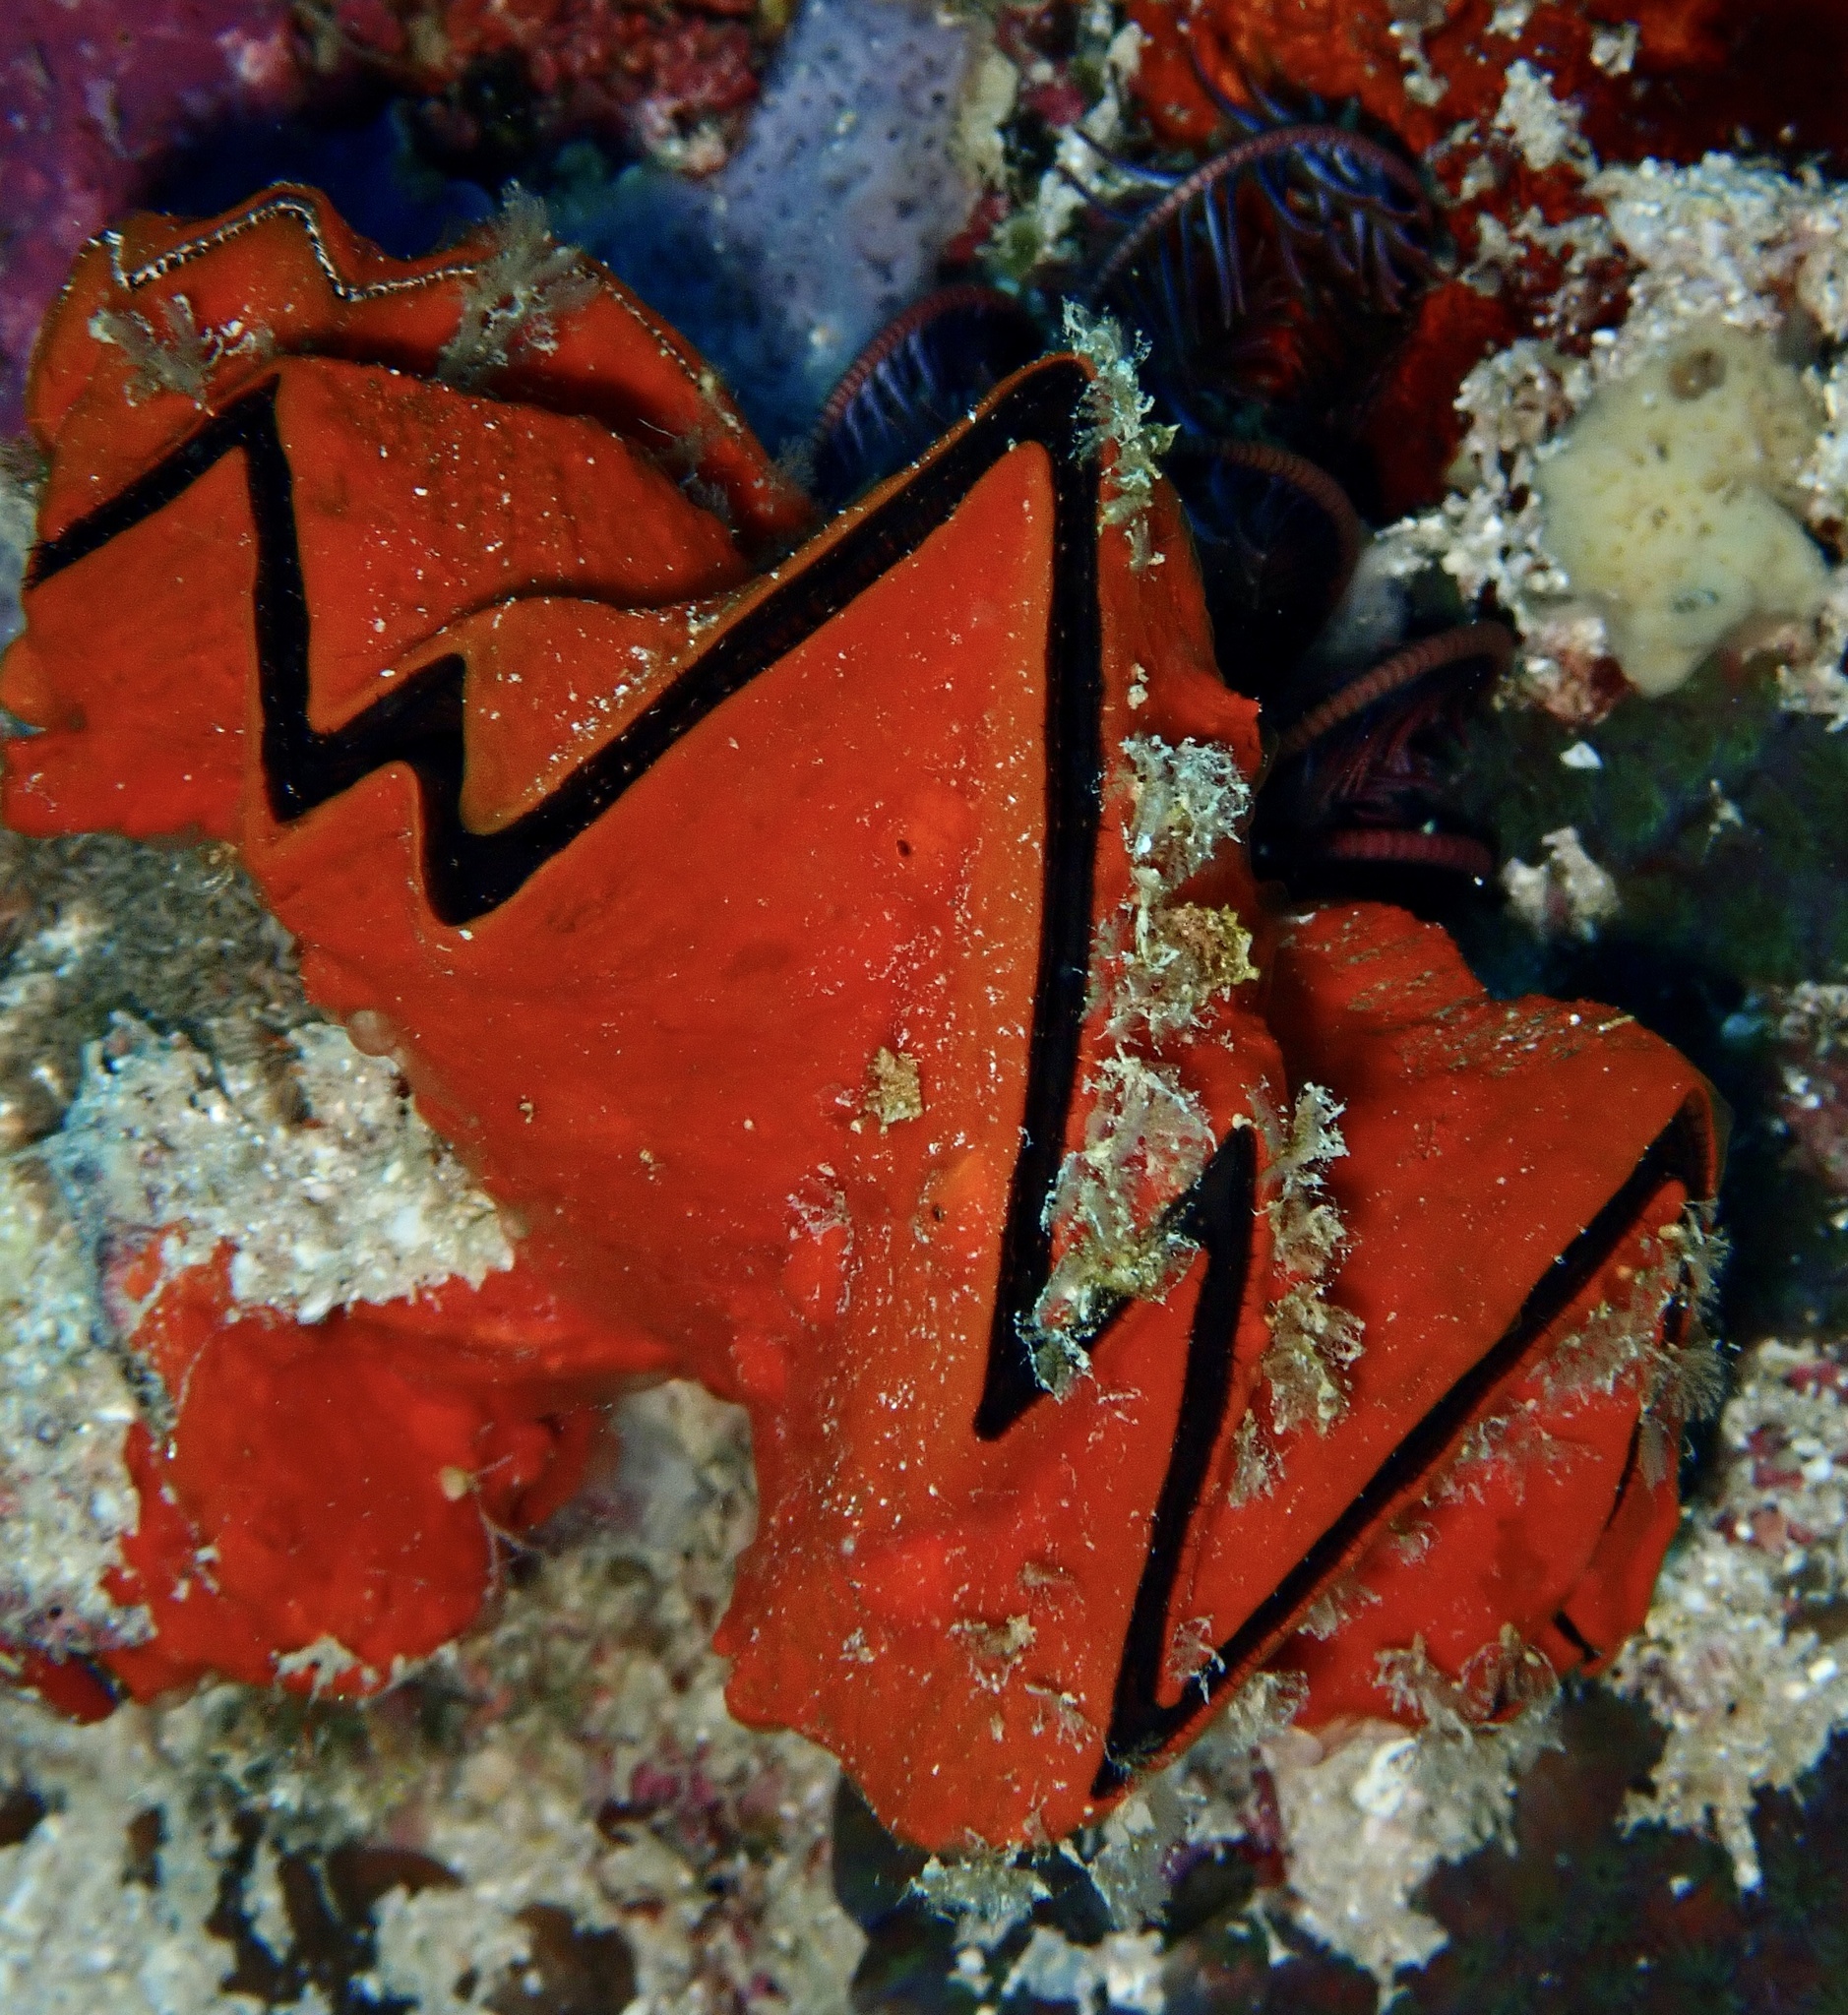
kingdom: Animalia
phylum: Mollusca
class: Bivalvia
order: Ostreida
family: Ostreidae
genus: Lopha
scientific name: Lopha cristagalli
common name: Cock's-comb oyster
